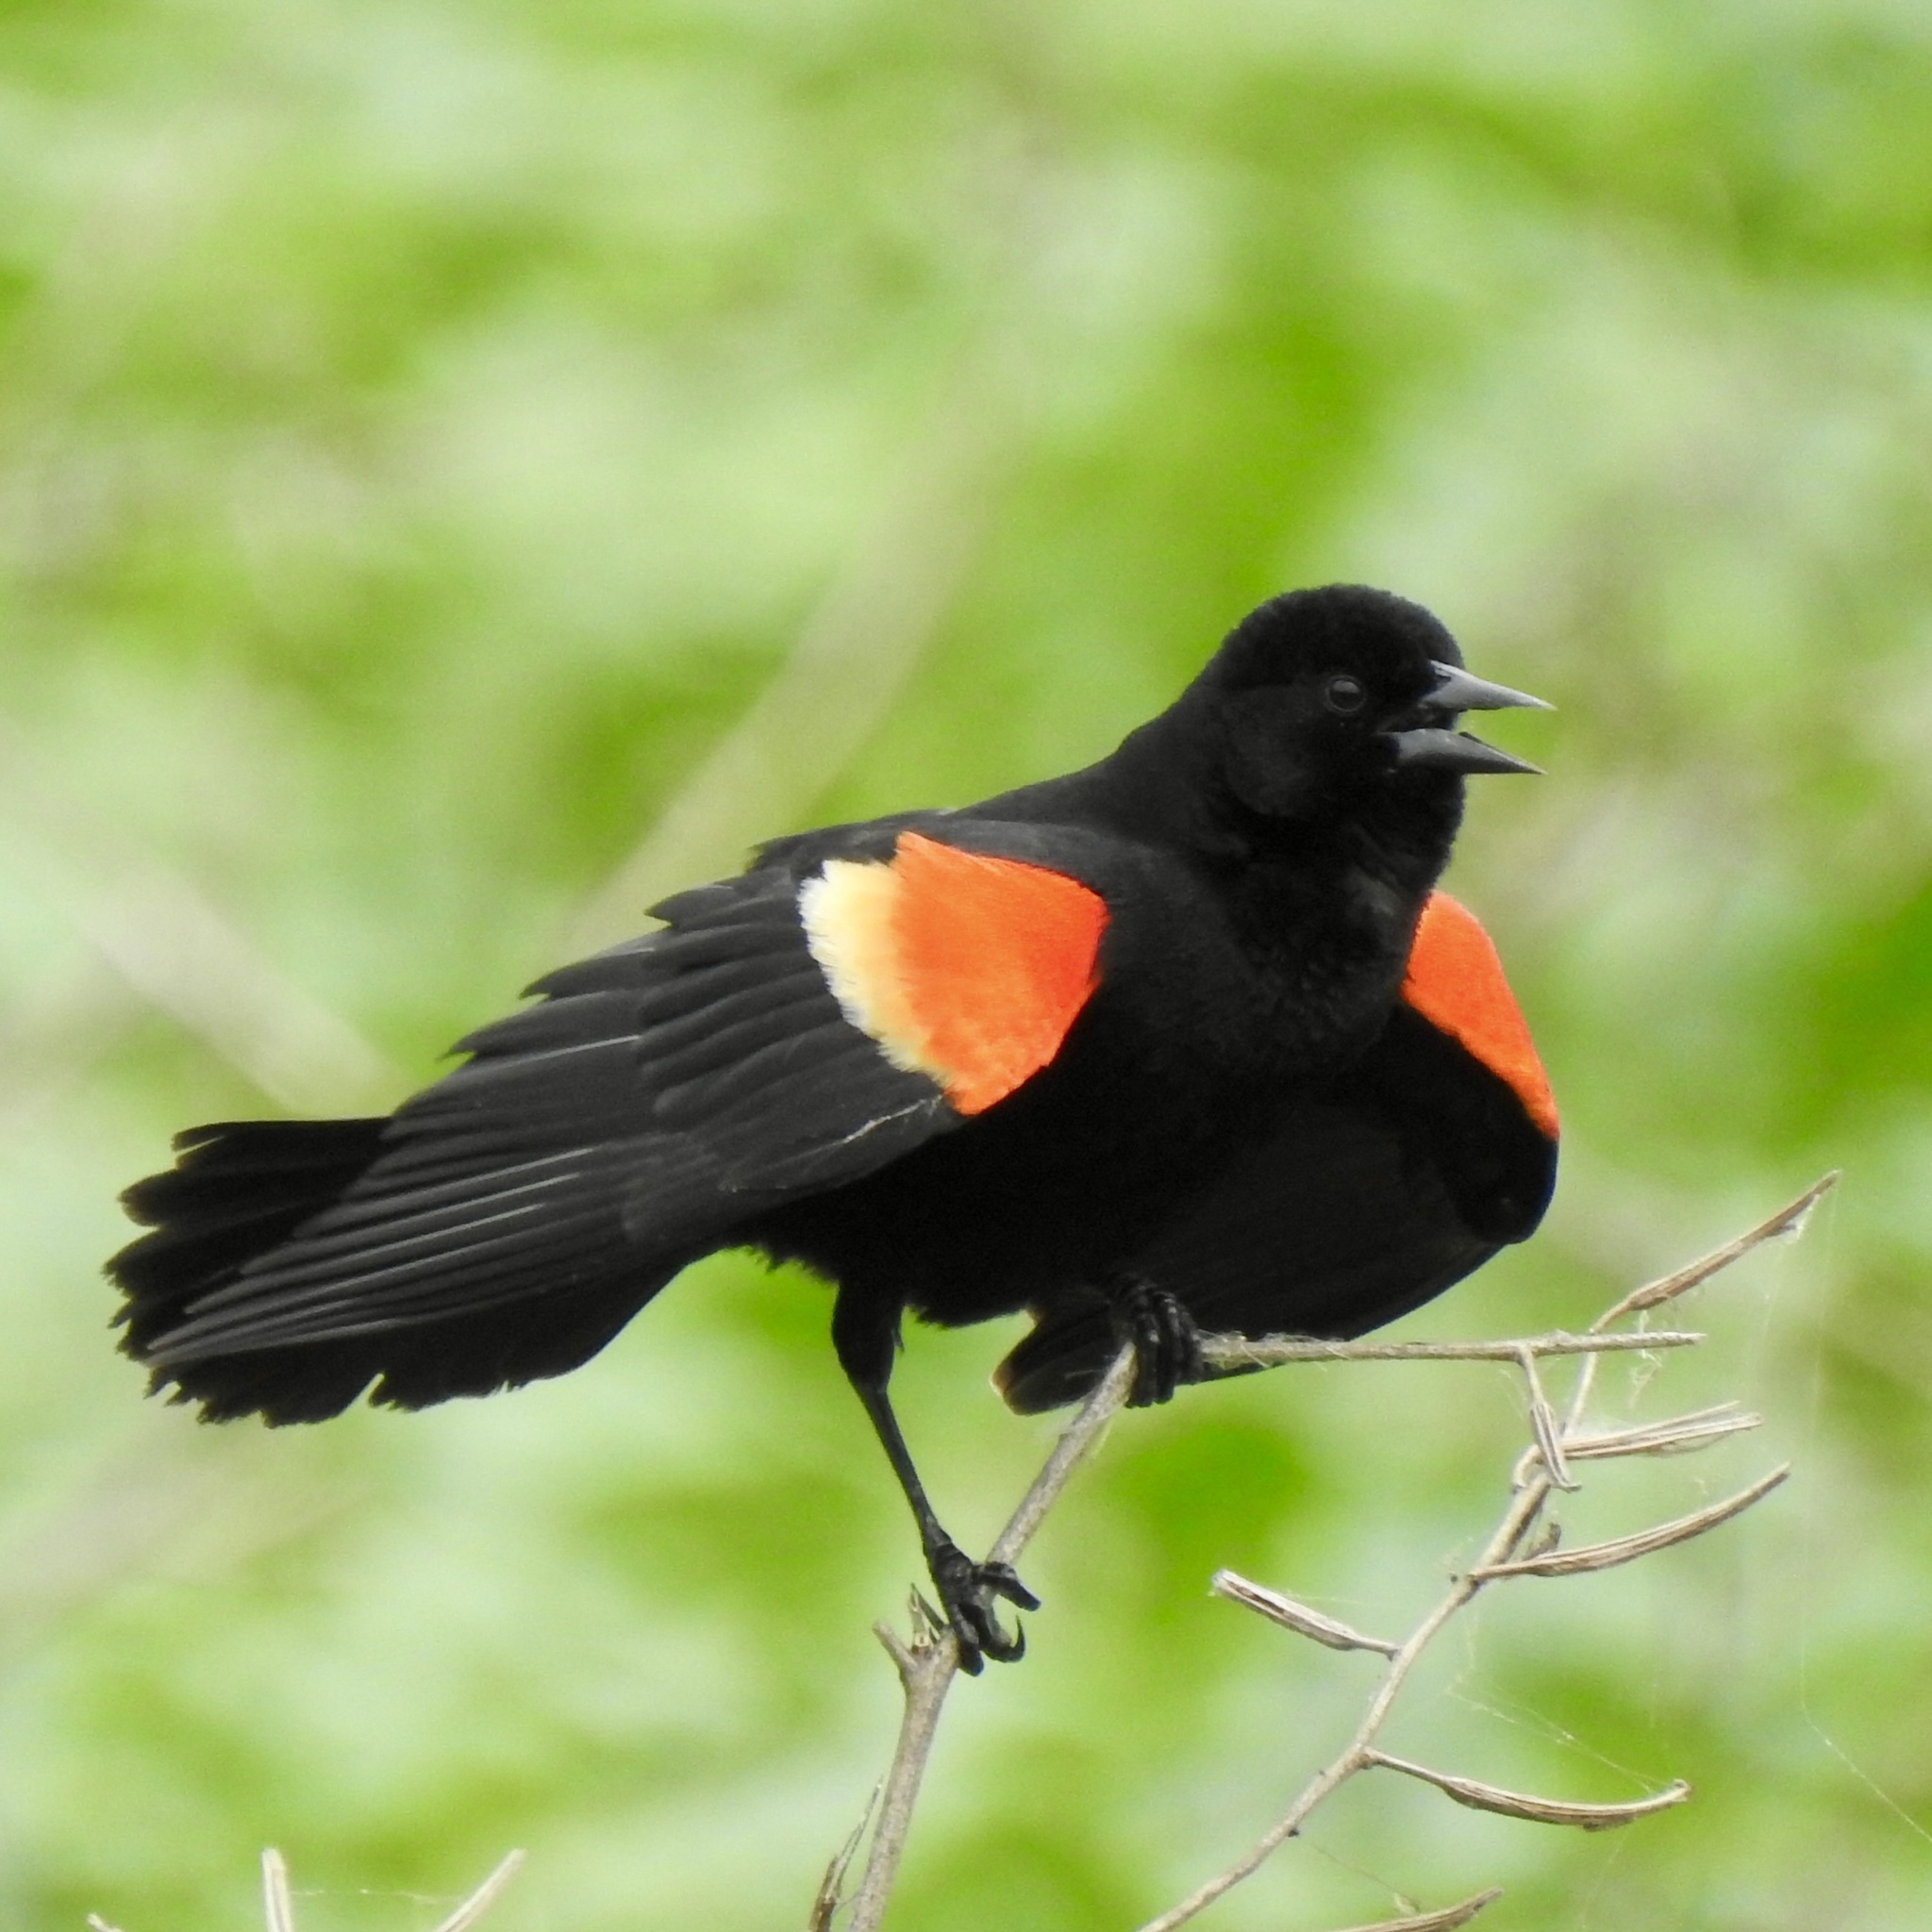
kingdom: Animalia
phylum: Chordata
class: Aves
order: Passeriformes
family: Icteridae
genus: Agelaius
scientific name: Agelaius phoeniceus
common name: Red-winged blackbird
